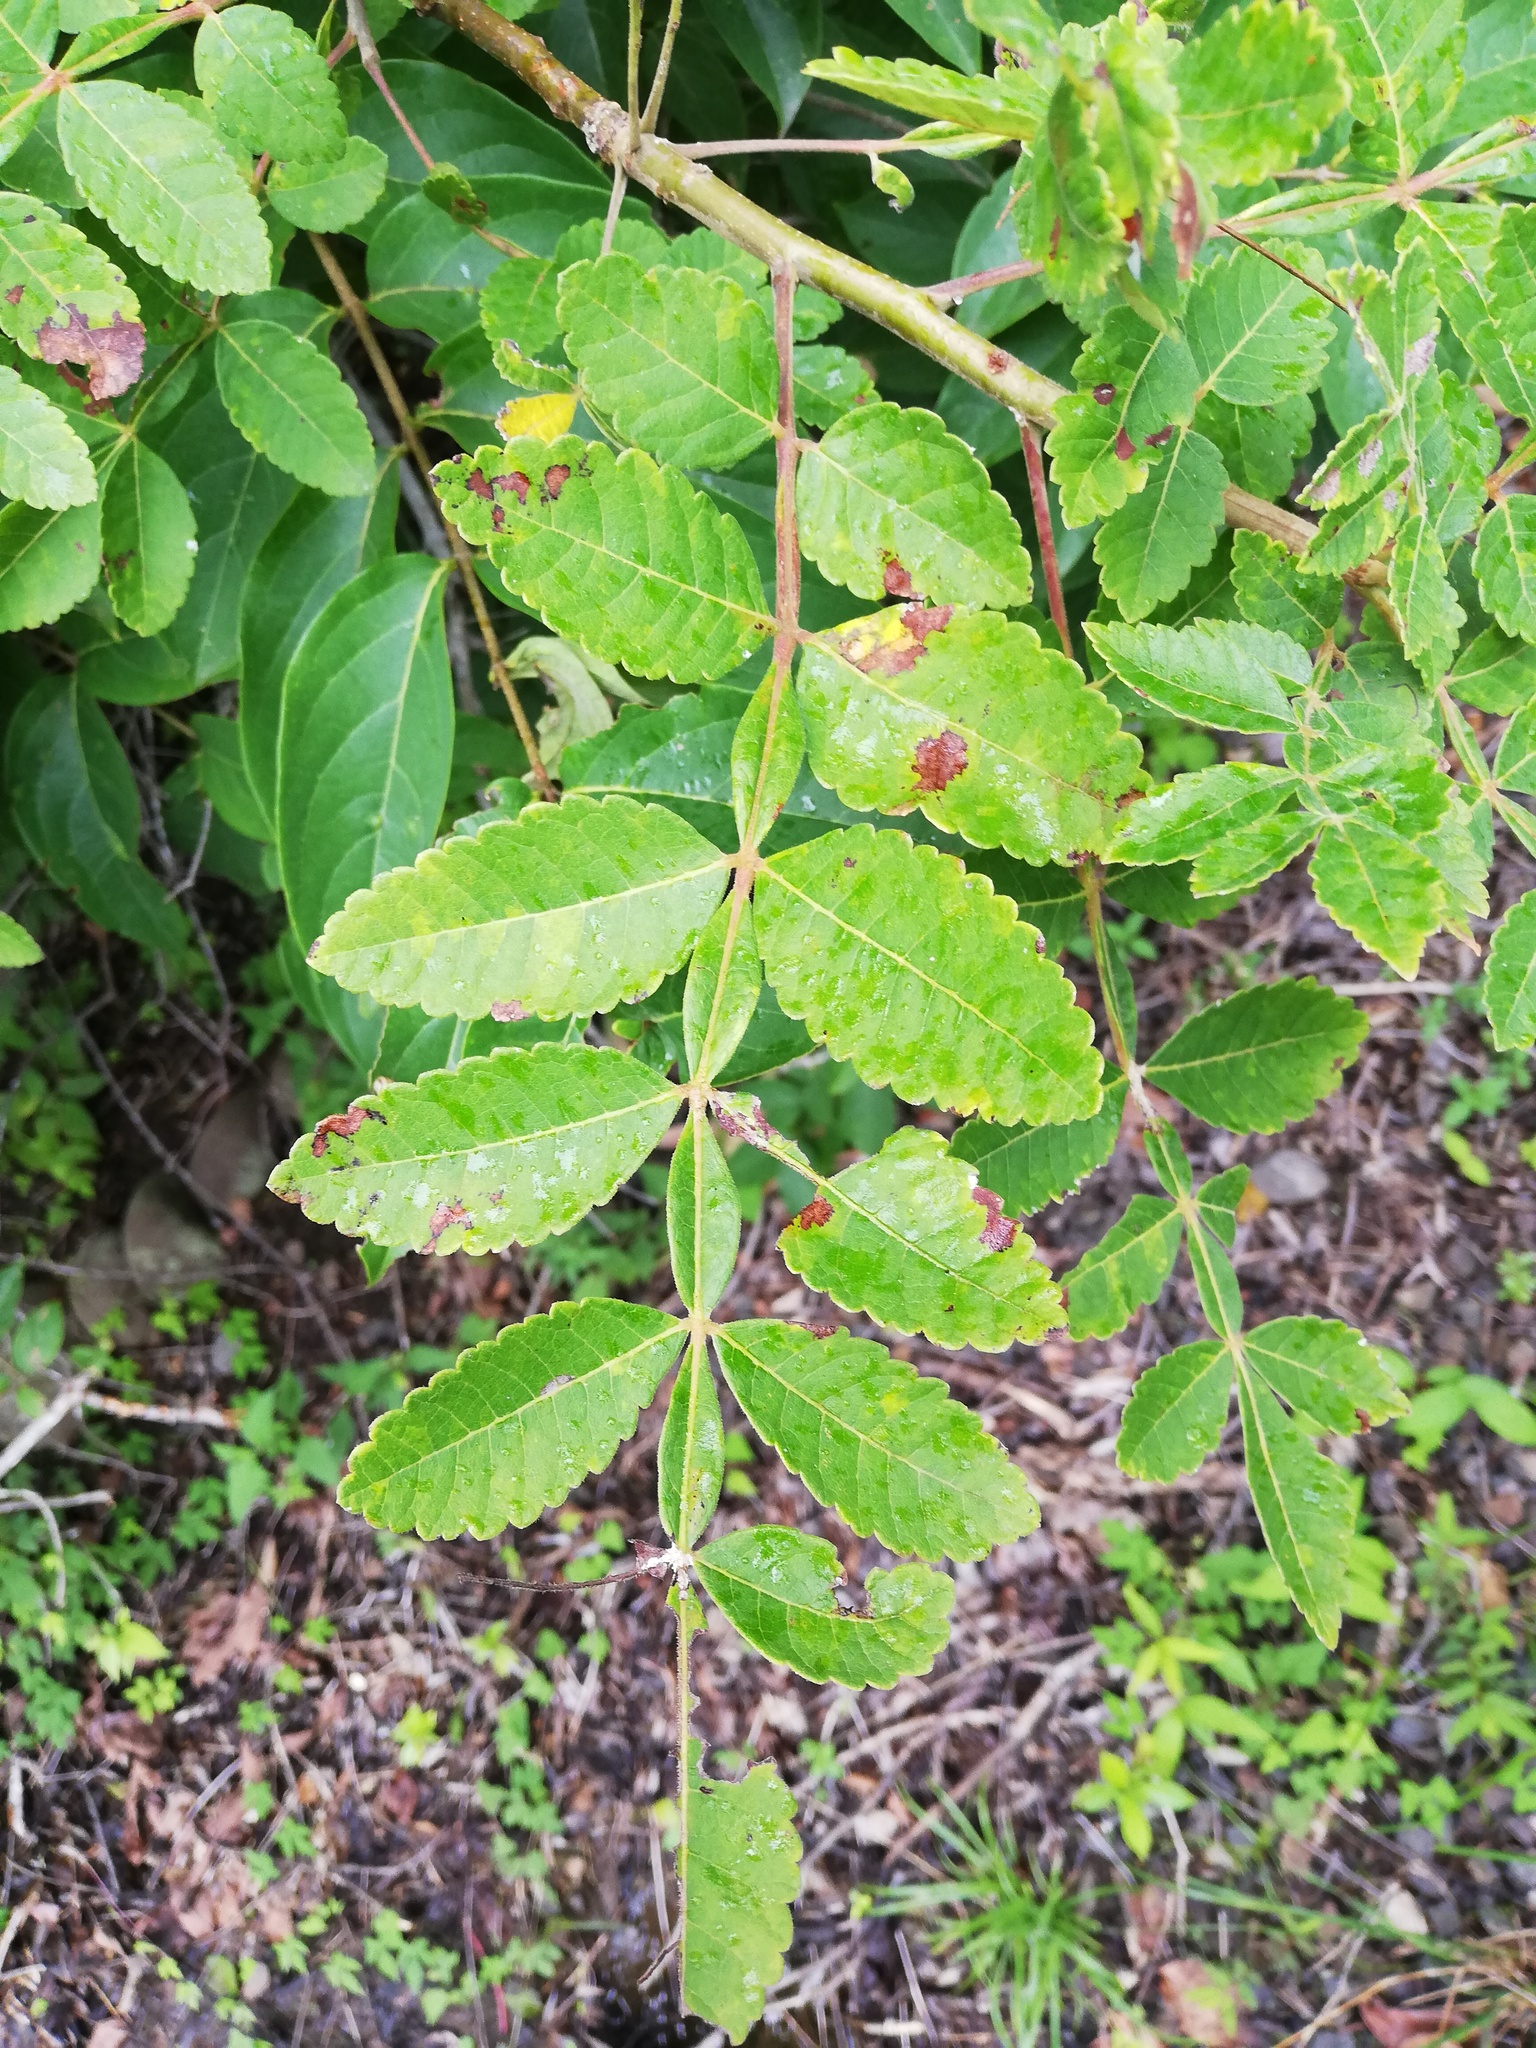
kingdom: Plantae
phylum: Tracheophyta
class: Magnoliopsida
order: Sapindales
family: Burseraceae
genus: Bursera
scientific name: Bursera tomentosa
